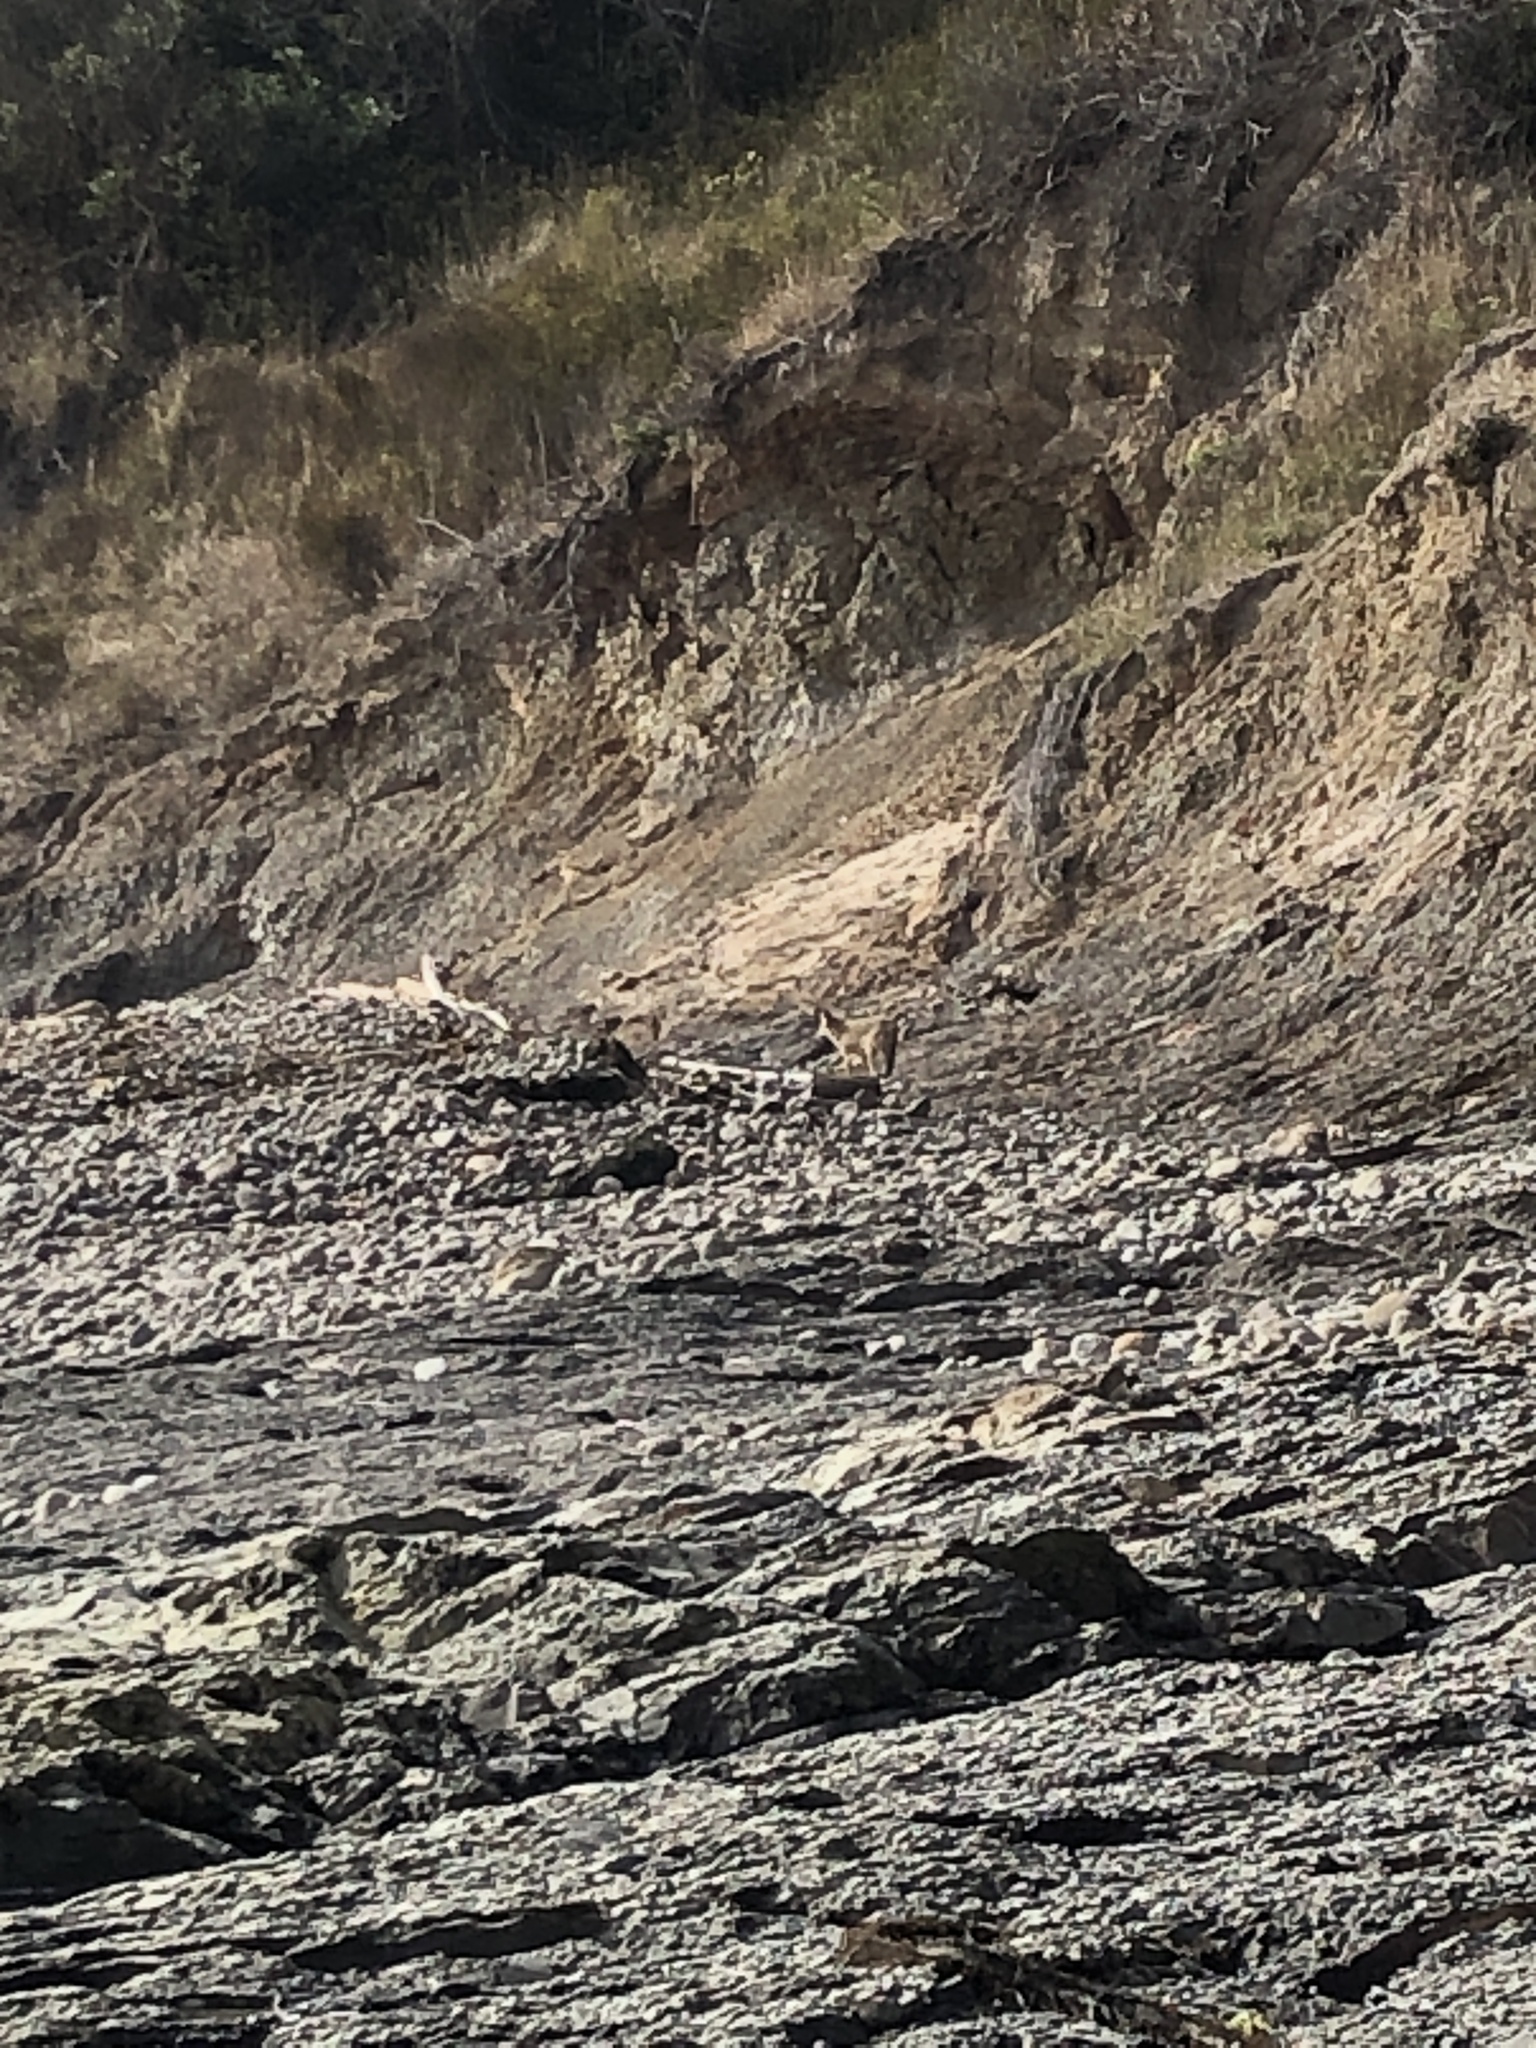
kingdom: Animalia
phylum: Chordata
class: Mammalia
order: Carnivora
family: Canidae
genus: Canis
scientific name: Canis latrans
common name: Coyote
